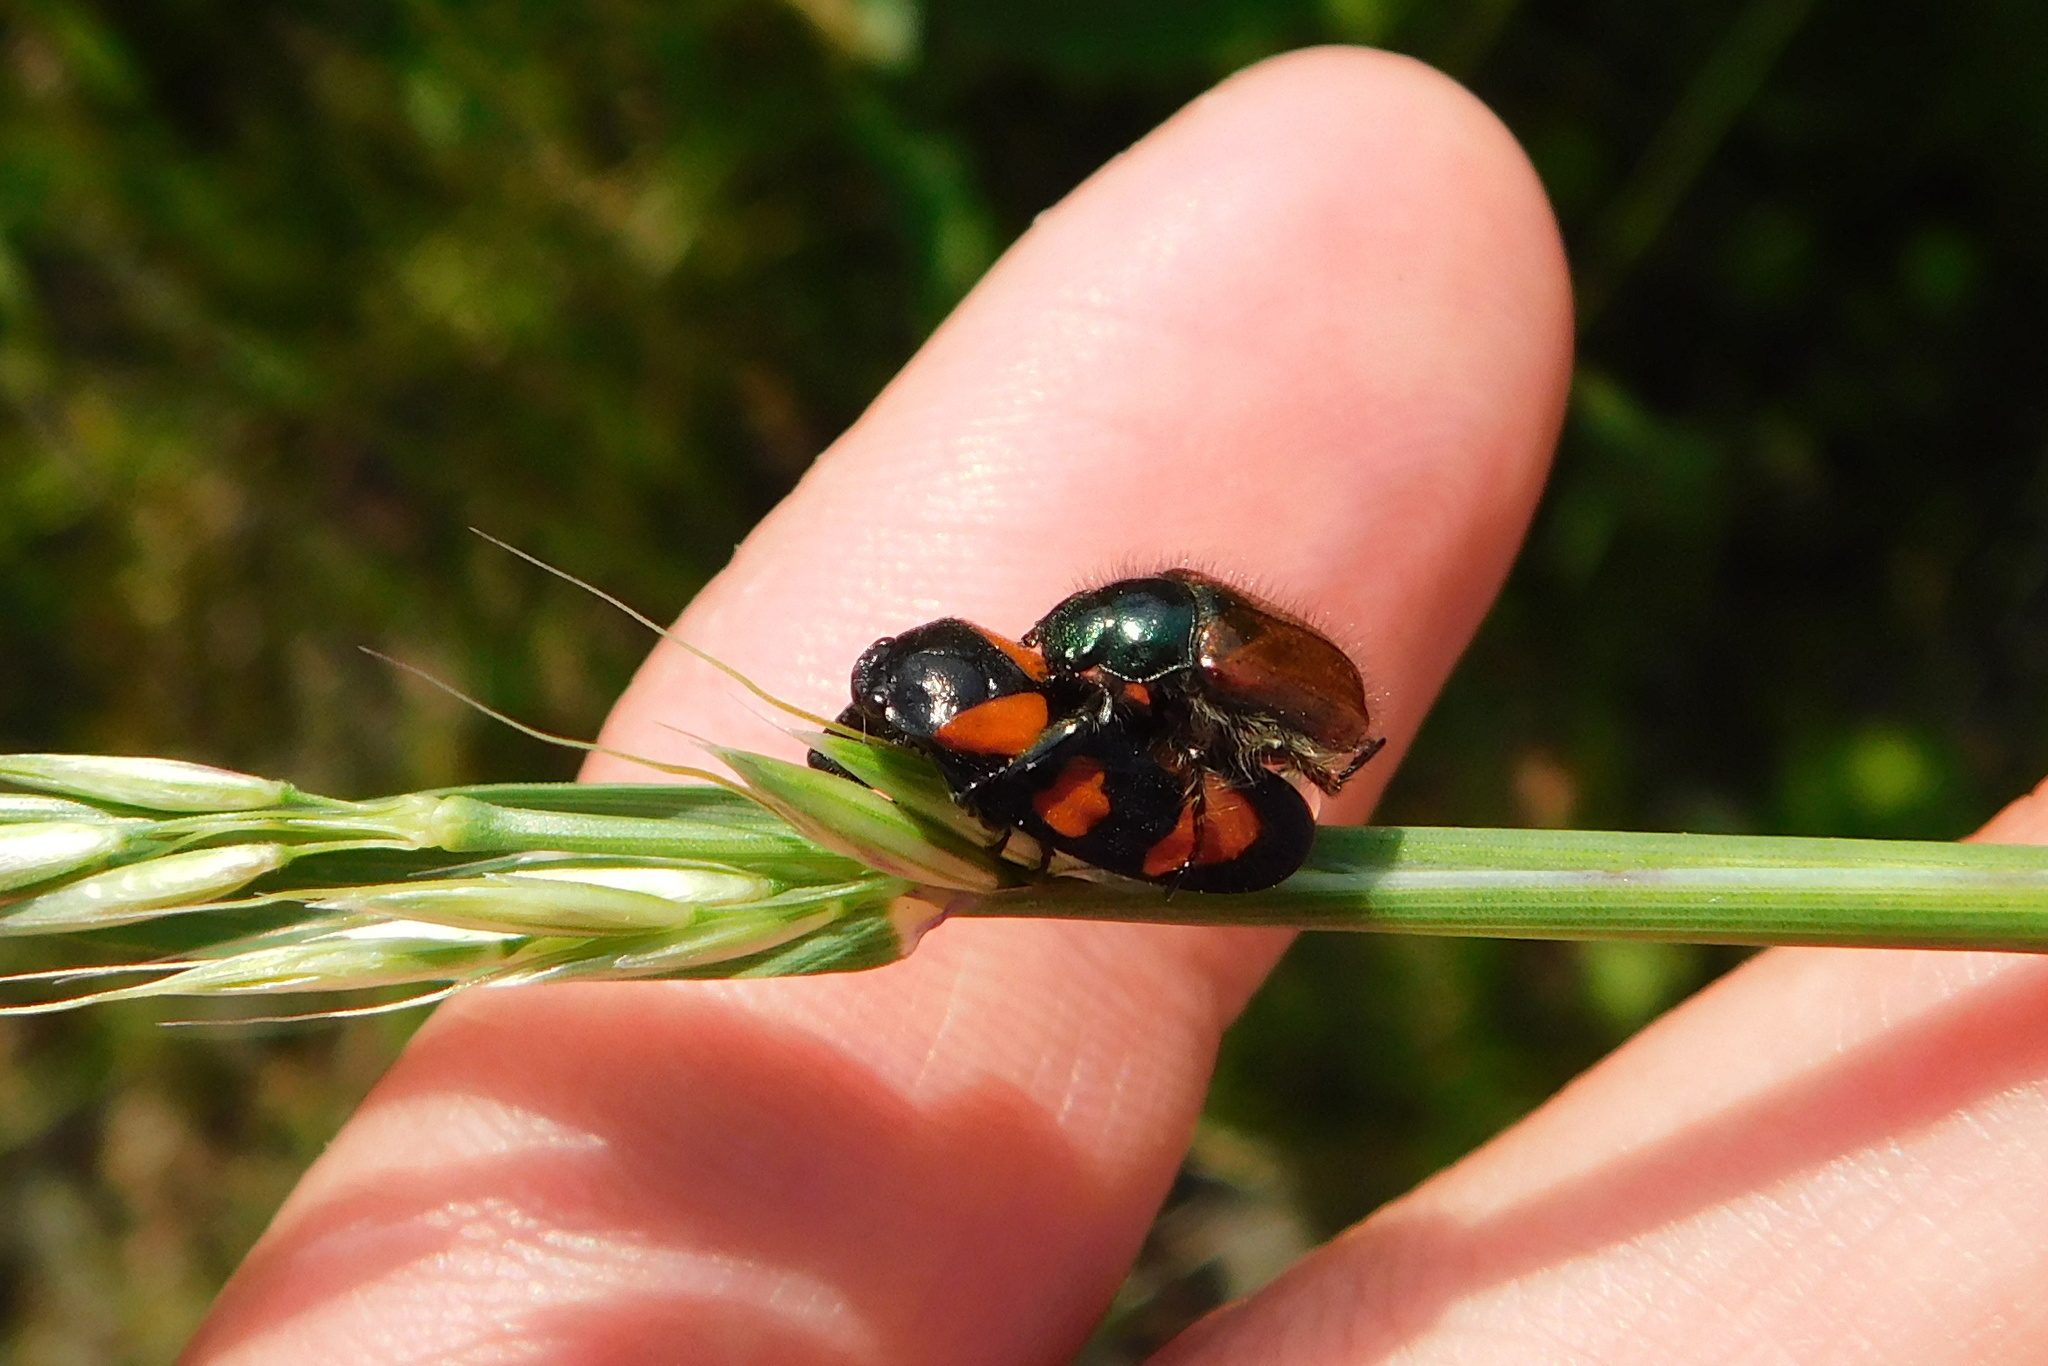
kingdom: Animalia
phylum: Arthropoda
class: Insecta
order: Coleoptera
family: Scarabaeidae
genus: Phyllopertha
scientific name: Phyllopertha horticola
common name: Garden chafer
